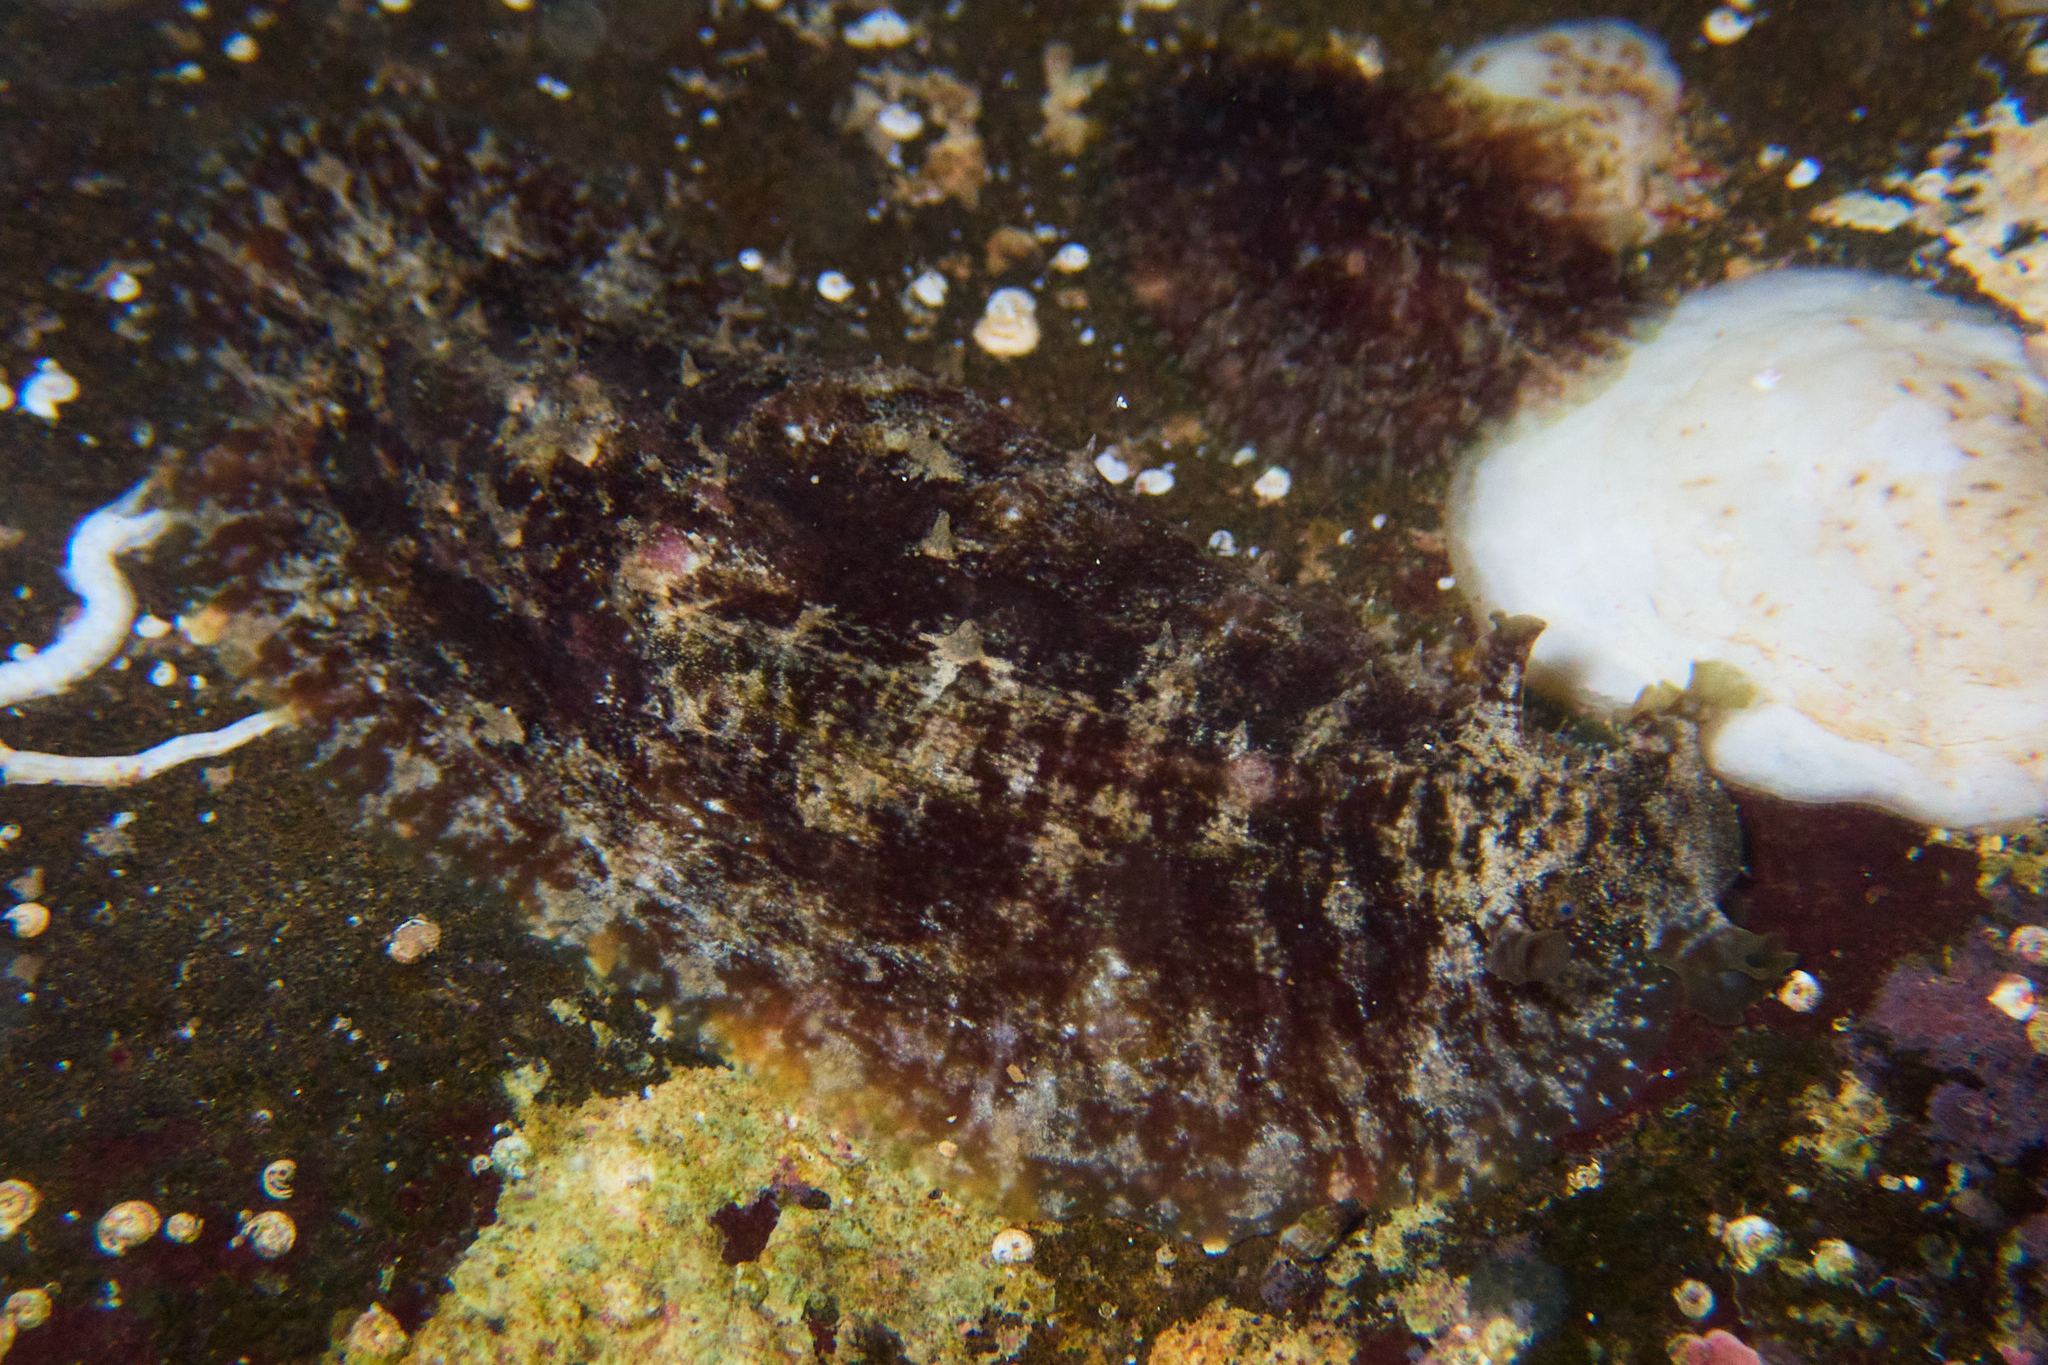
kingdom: Animalia
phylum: Mollusca
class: Gastropoda
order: Aplysiida
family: Aplysiidae
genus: Dolabrifera
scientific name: Dolabrifera dolabrifera
